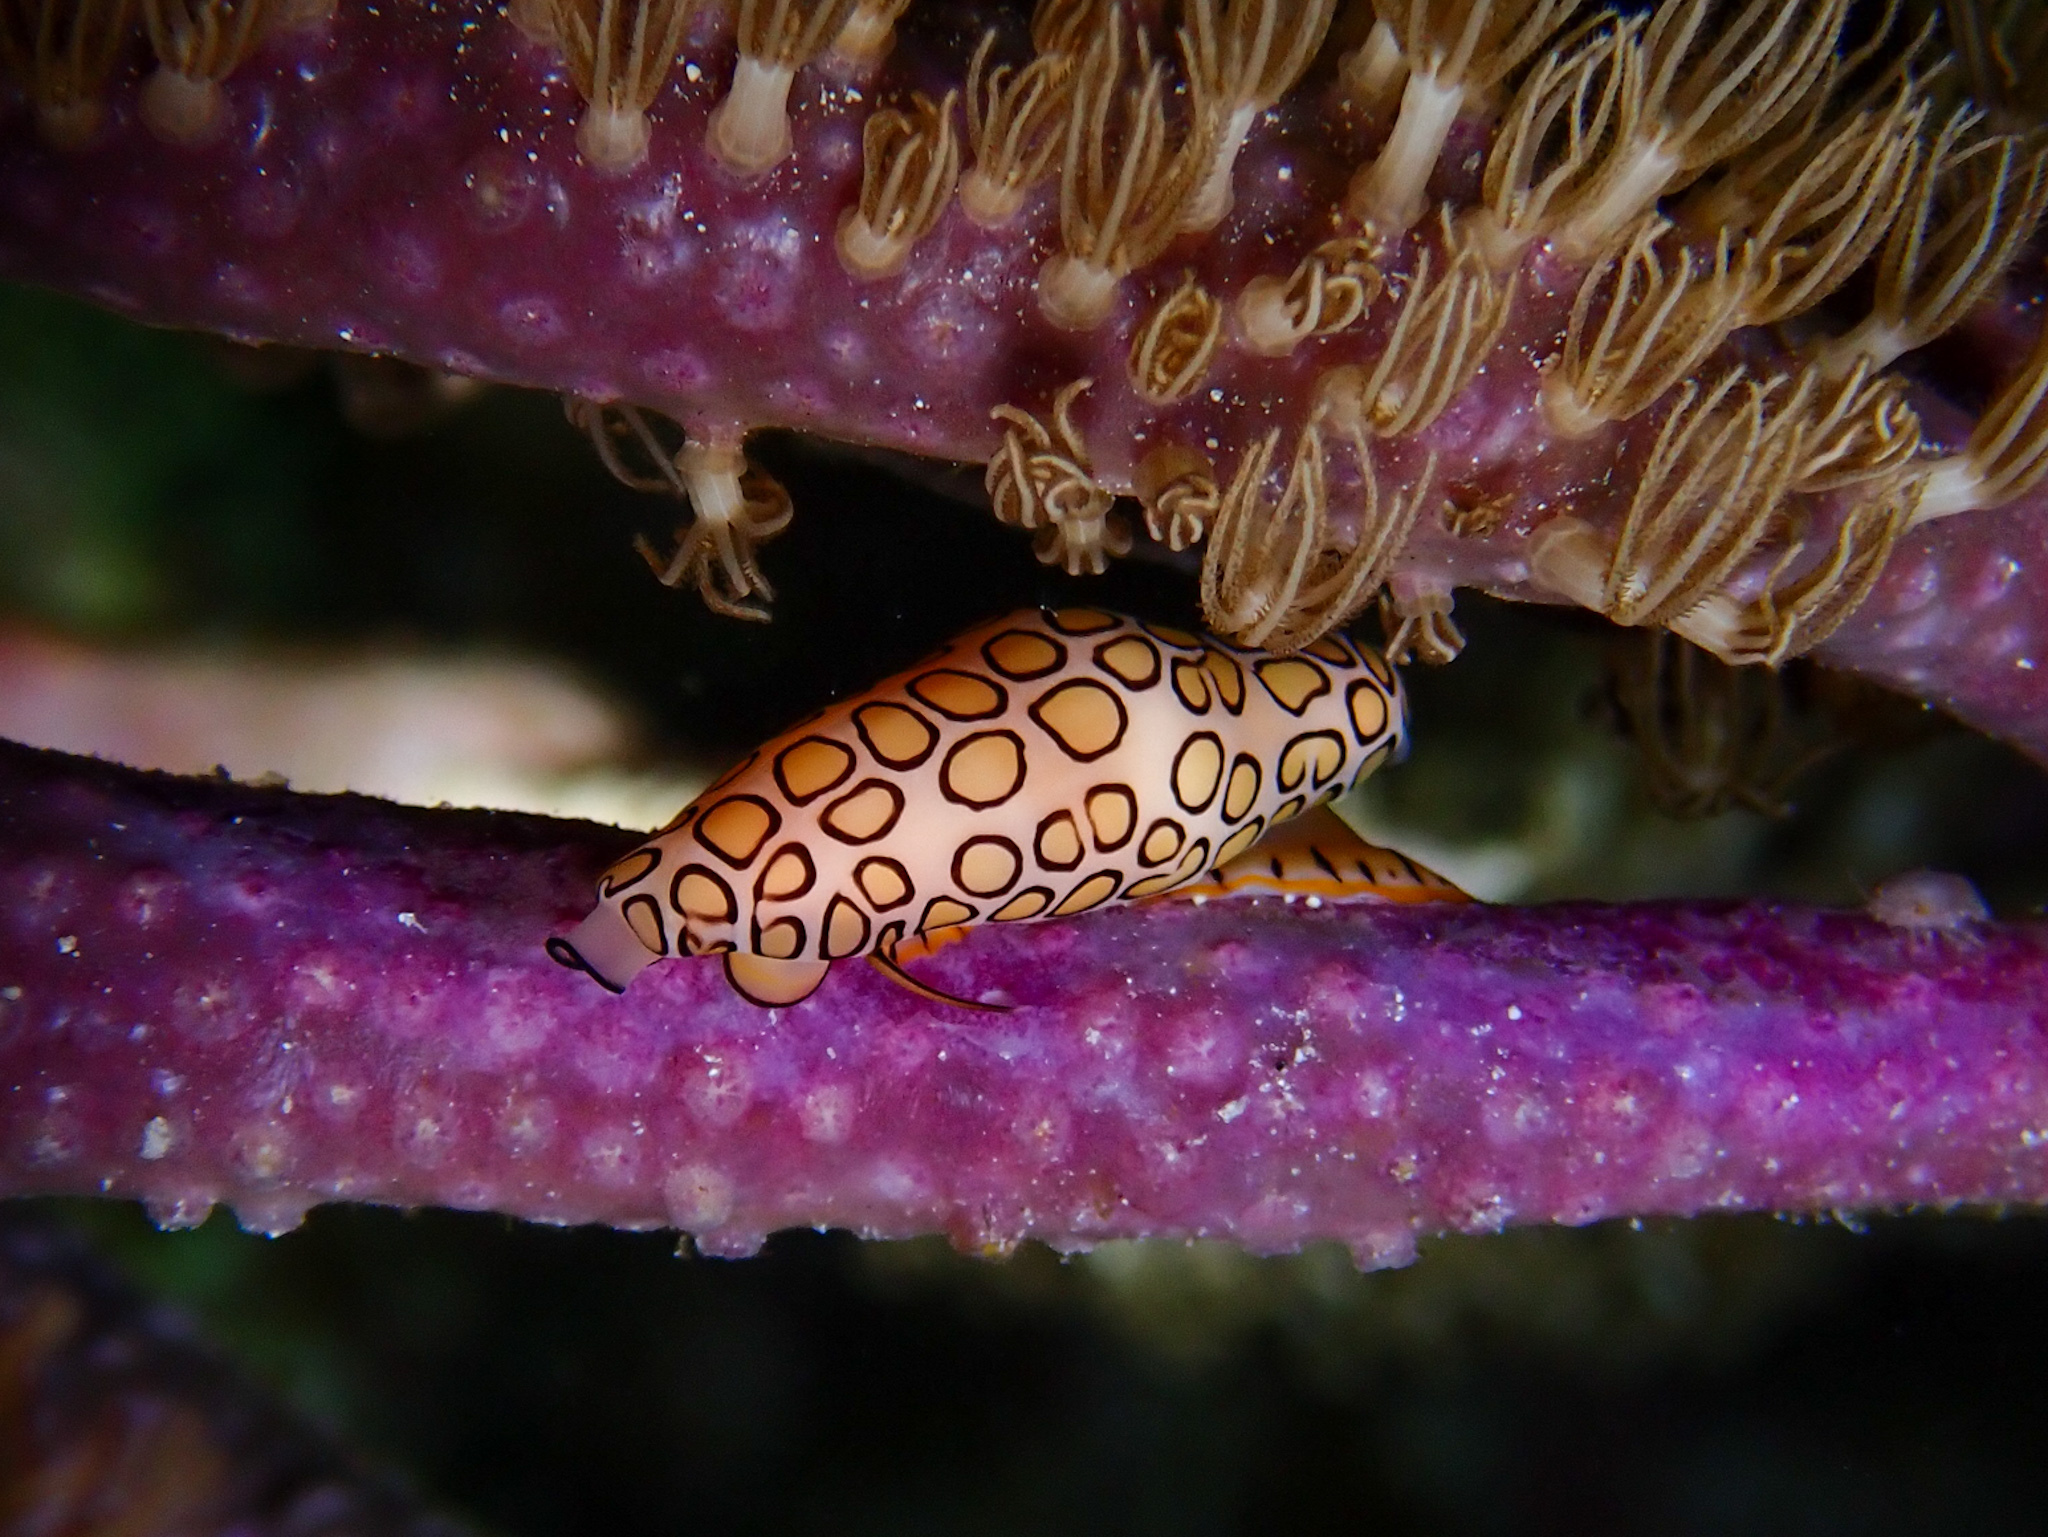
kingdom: Animalia
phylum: Mollusca
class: Gastropoda
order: Littorinimorpha
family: Ovulidae
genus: Cyphoma
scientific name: Cyphoma gibbosum
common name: Flamingo tongue
